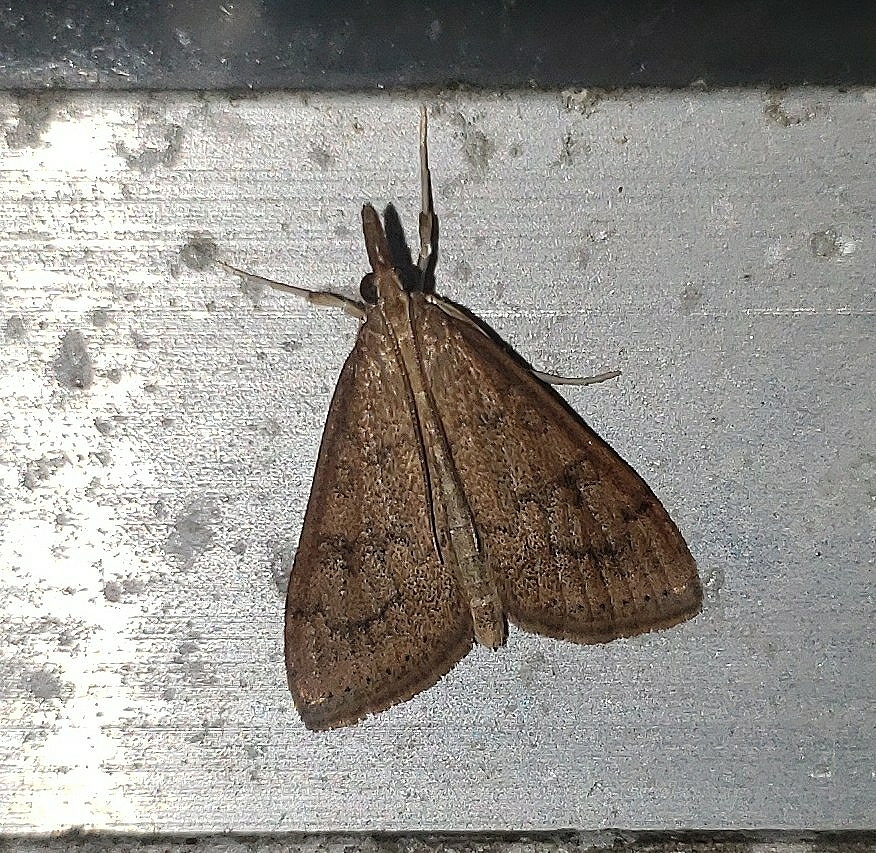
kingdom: Animalia
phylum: Arthropoda
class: Insecta
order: Lepidoptera
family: Crambidae
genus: Udea
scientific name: Udea rubigalis
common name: Celery leaftier moth
